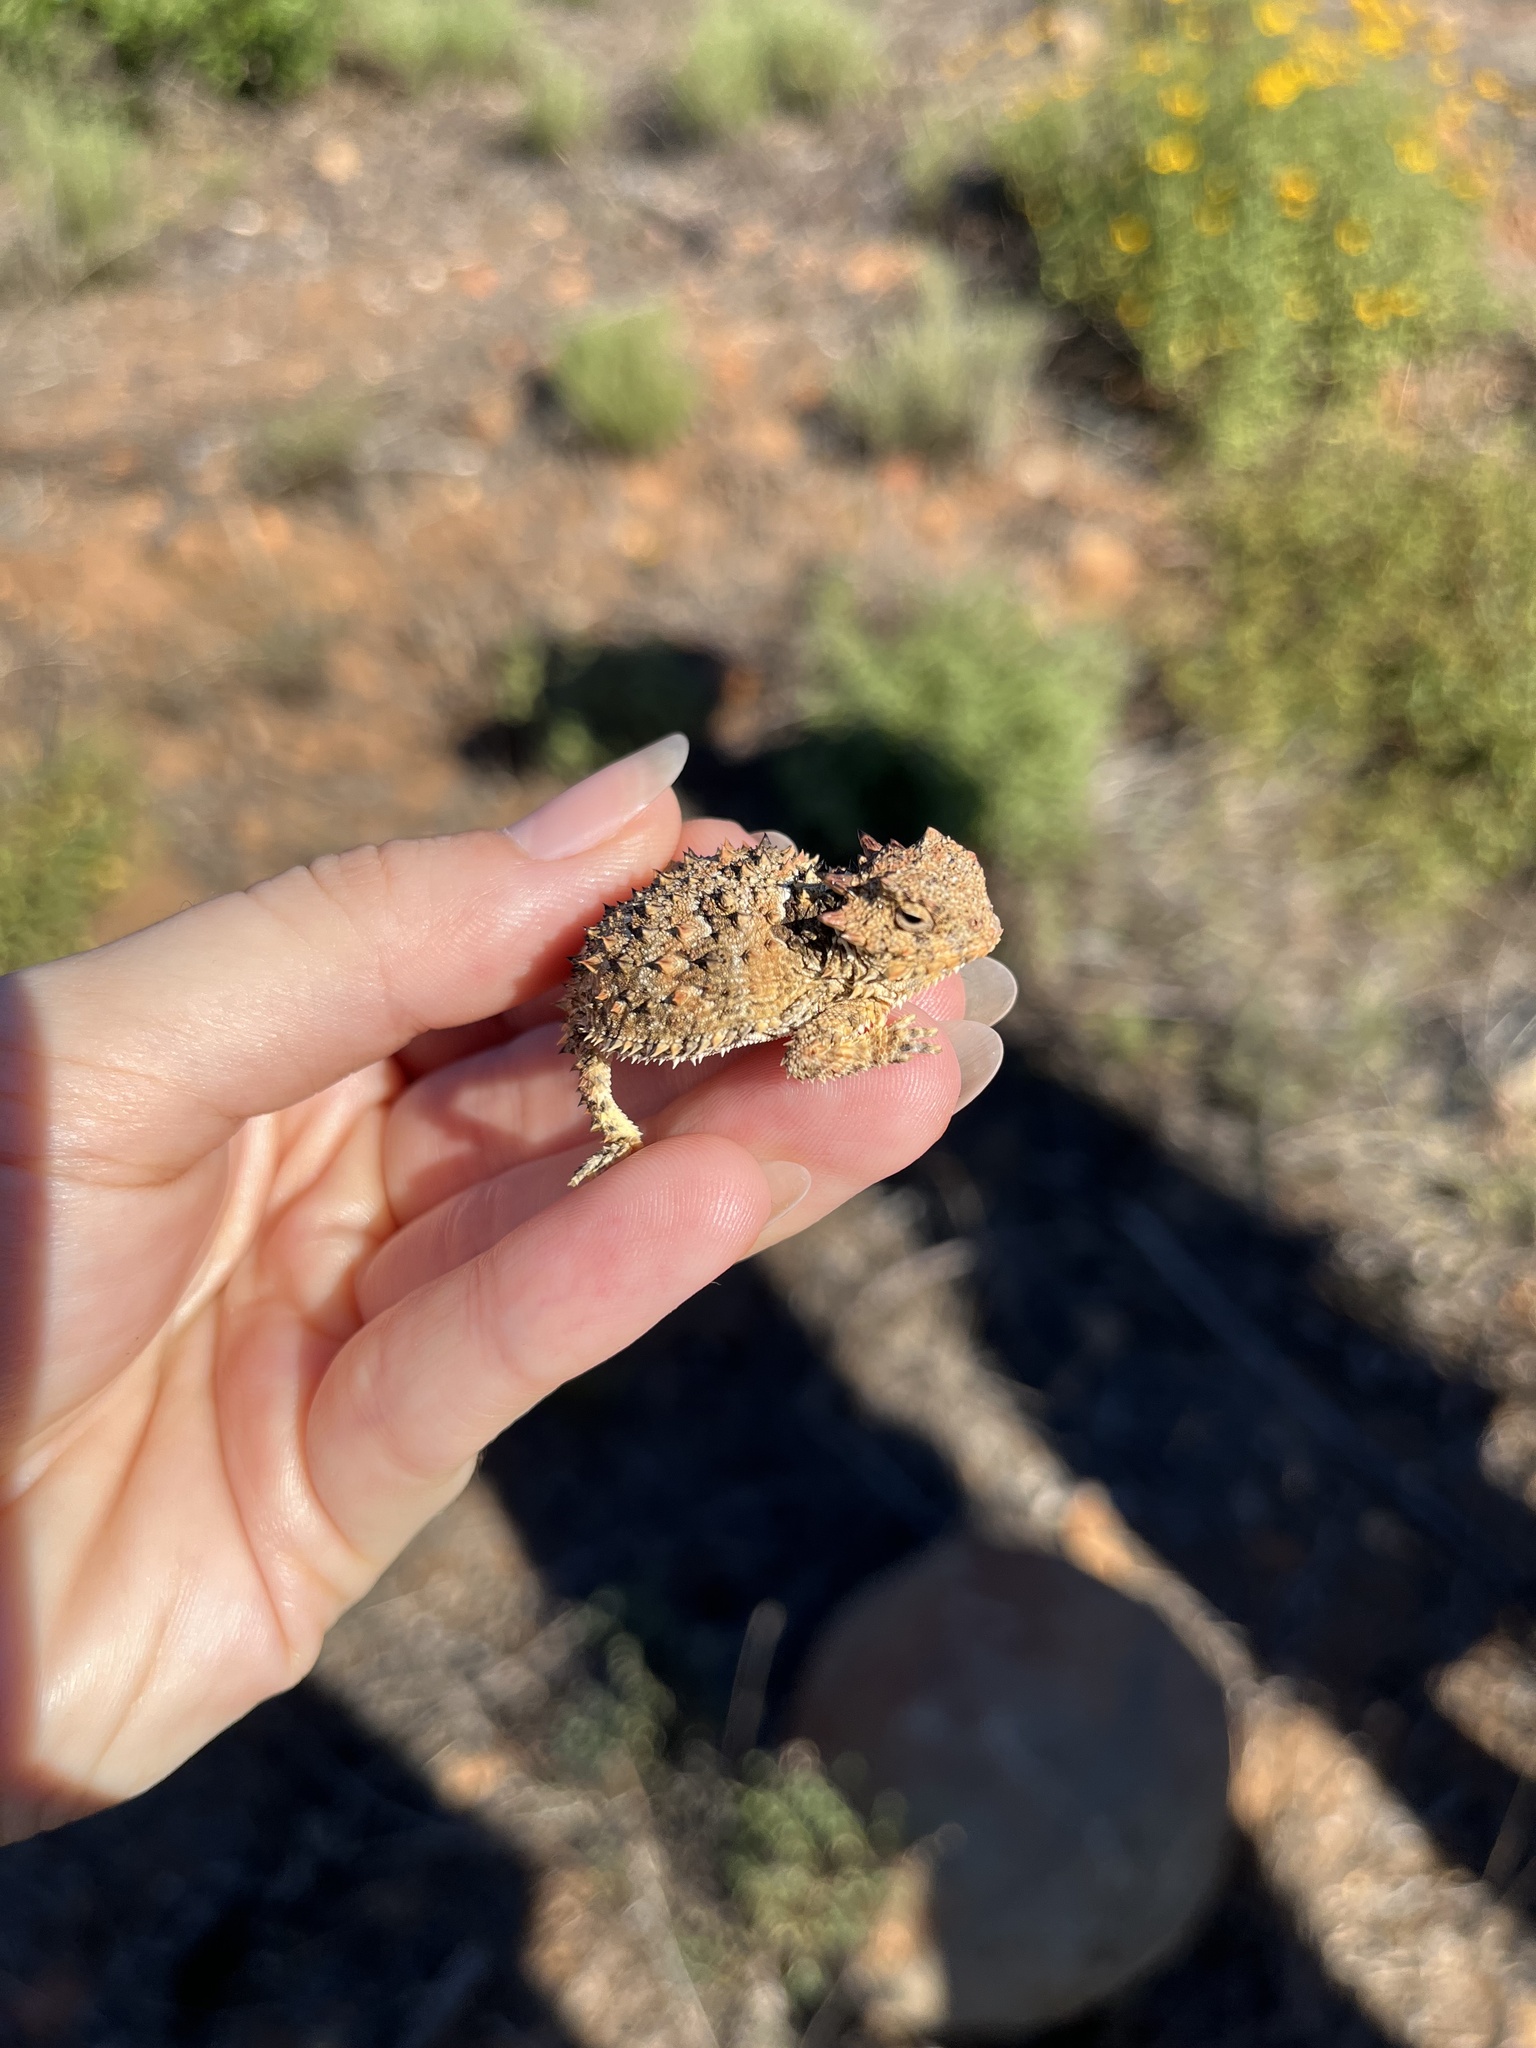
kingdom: Animalia
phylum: Chordata
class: Squamata
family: Phrynosomatidae
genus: Phrynosoma
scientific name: Phrynosoma blainvillii
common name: San diego horned lizard
